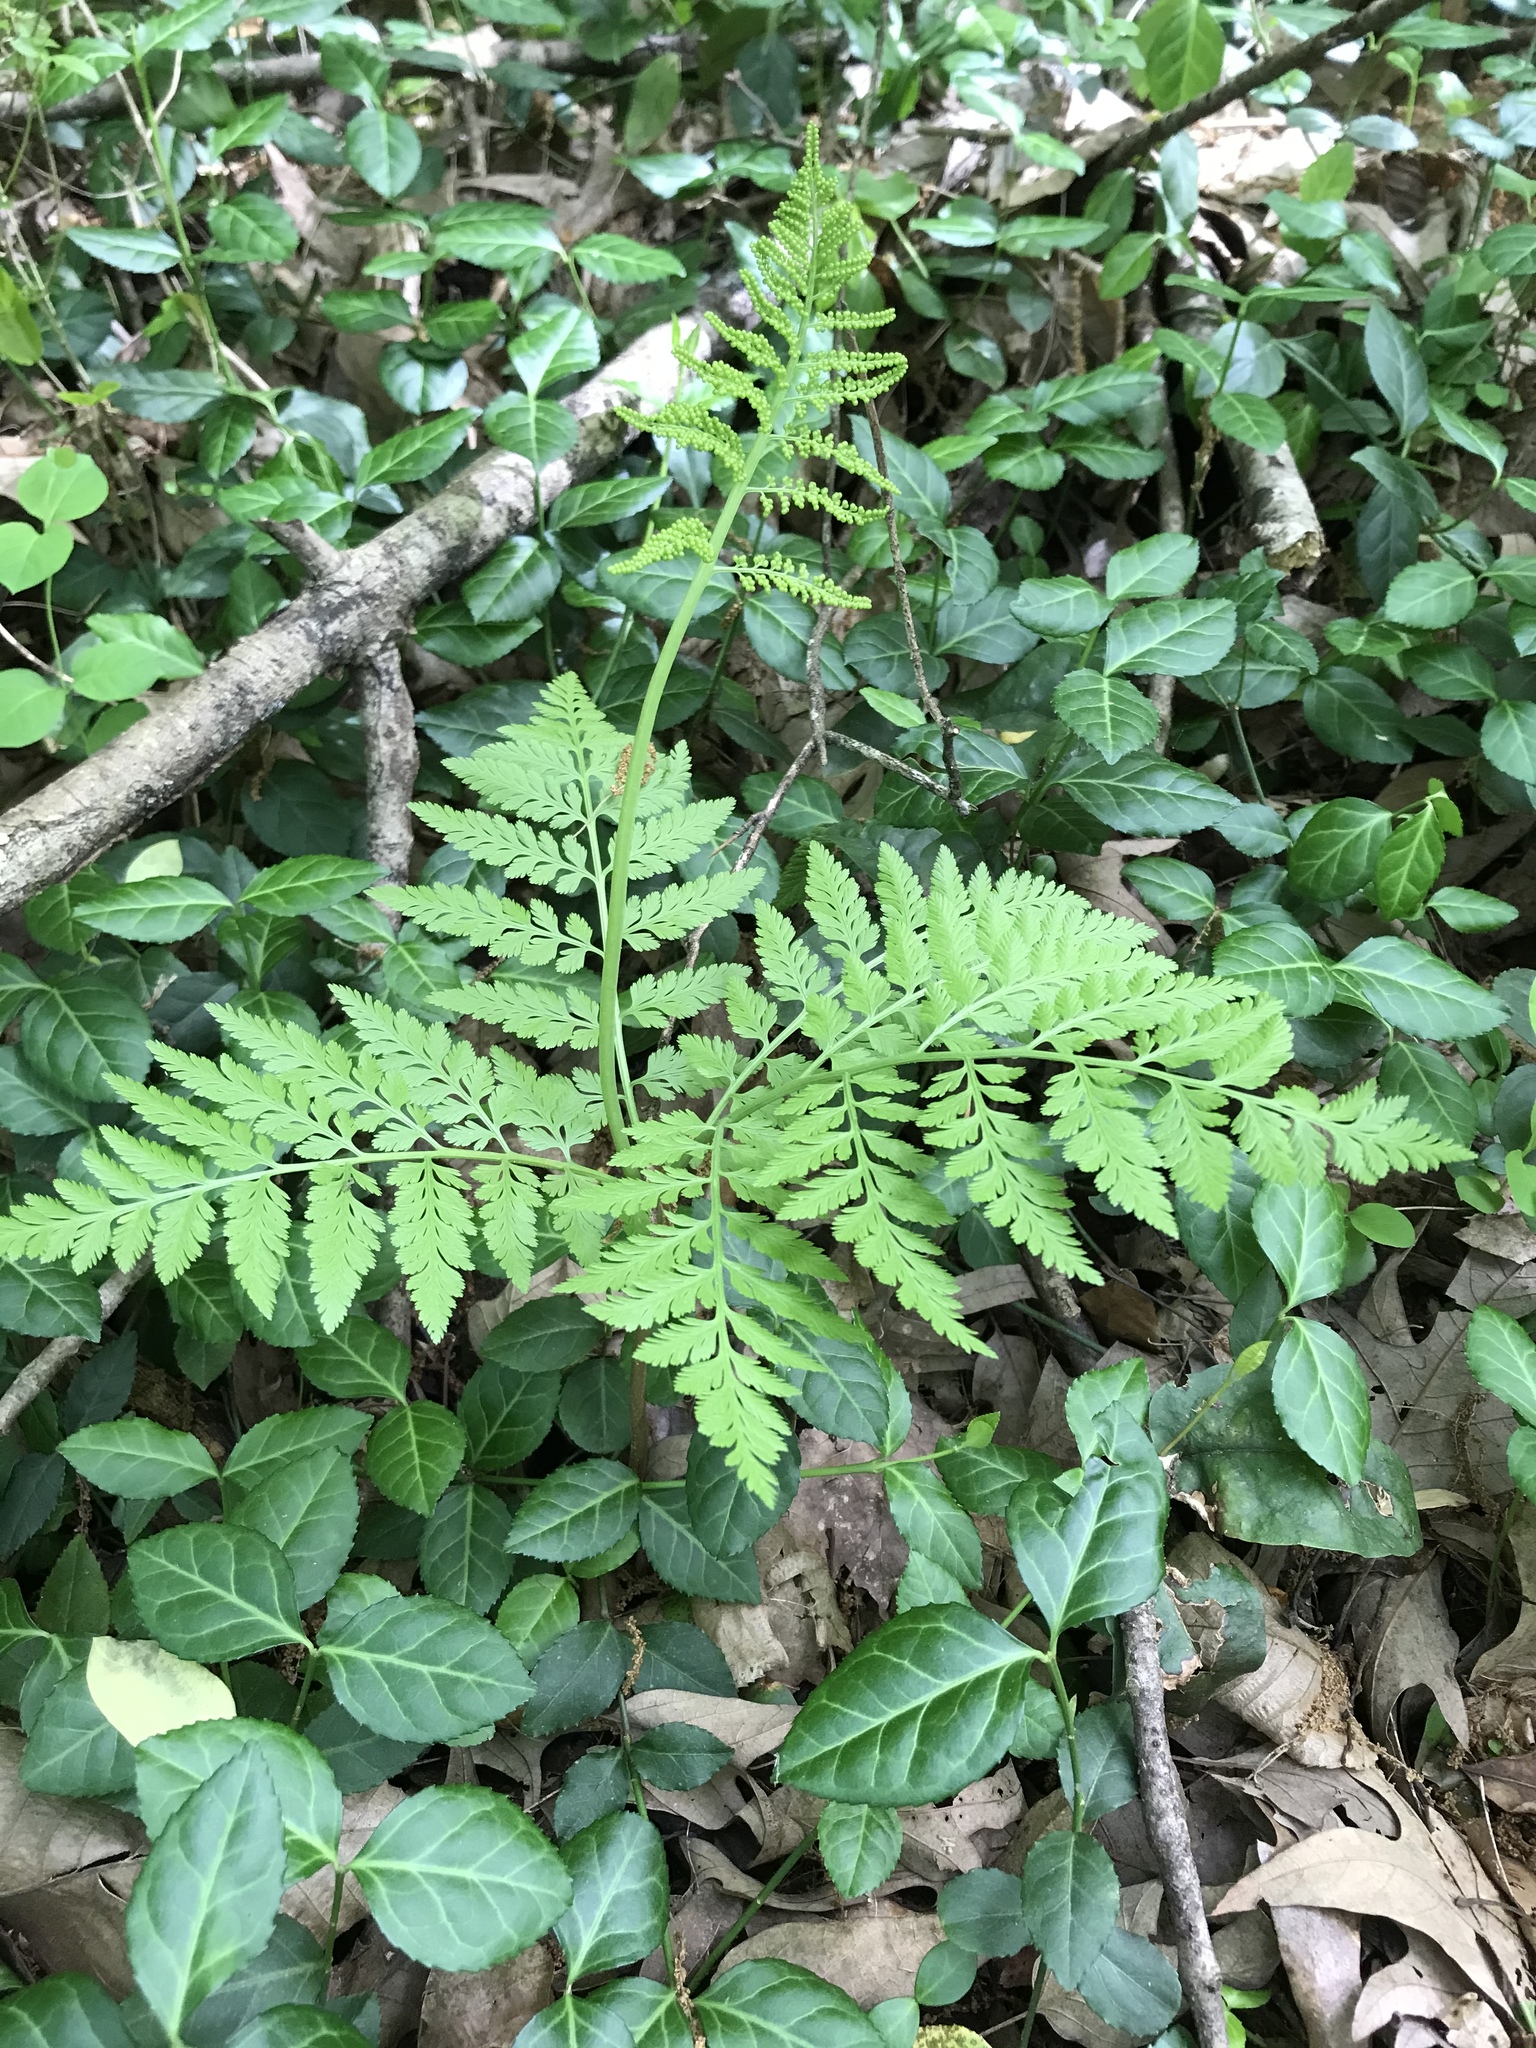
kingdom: Plantae
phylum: Tracheophyta
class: Polypodiopsida
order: Ophioglossales
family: Ophioglossaceae
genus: Botrypus
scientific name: Botrypus virginianus
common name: Common grapefern
